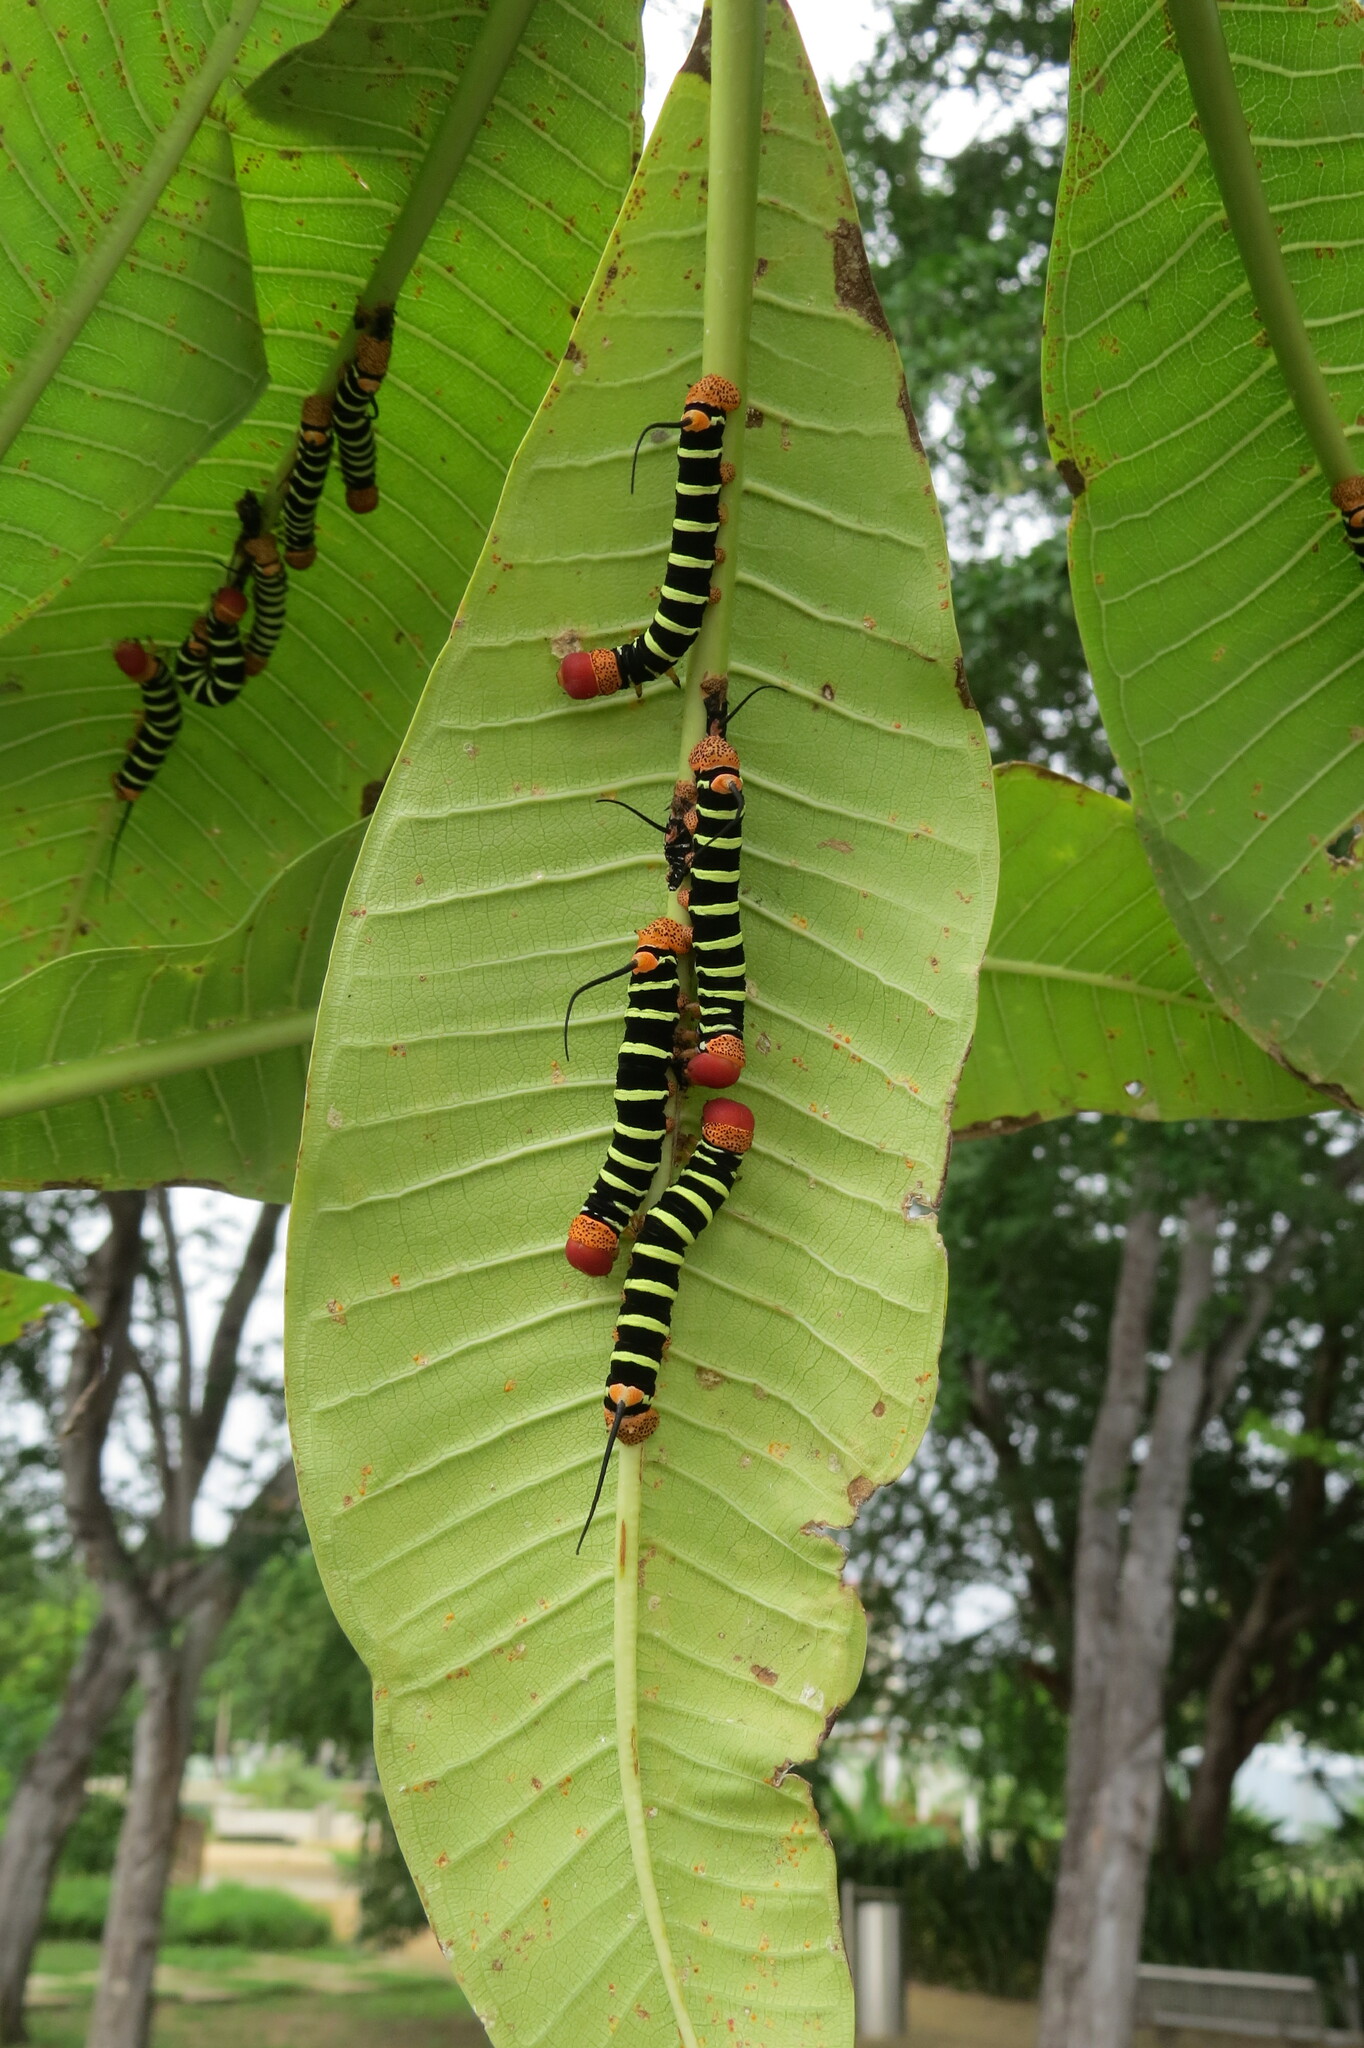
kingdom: Animalia
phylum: Arthropoda
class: Insecta
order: Lepidoptera
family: Sphingidae
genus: Pseudosphinx
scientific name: Pseudosphinx tetrio
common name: Tetrio sphinx
